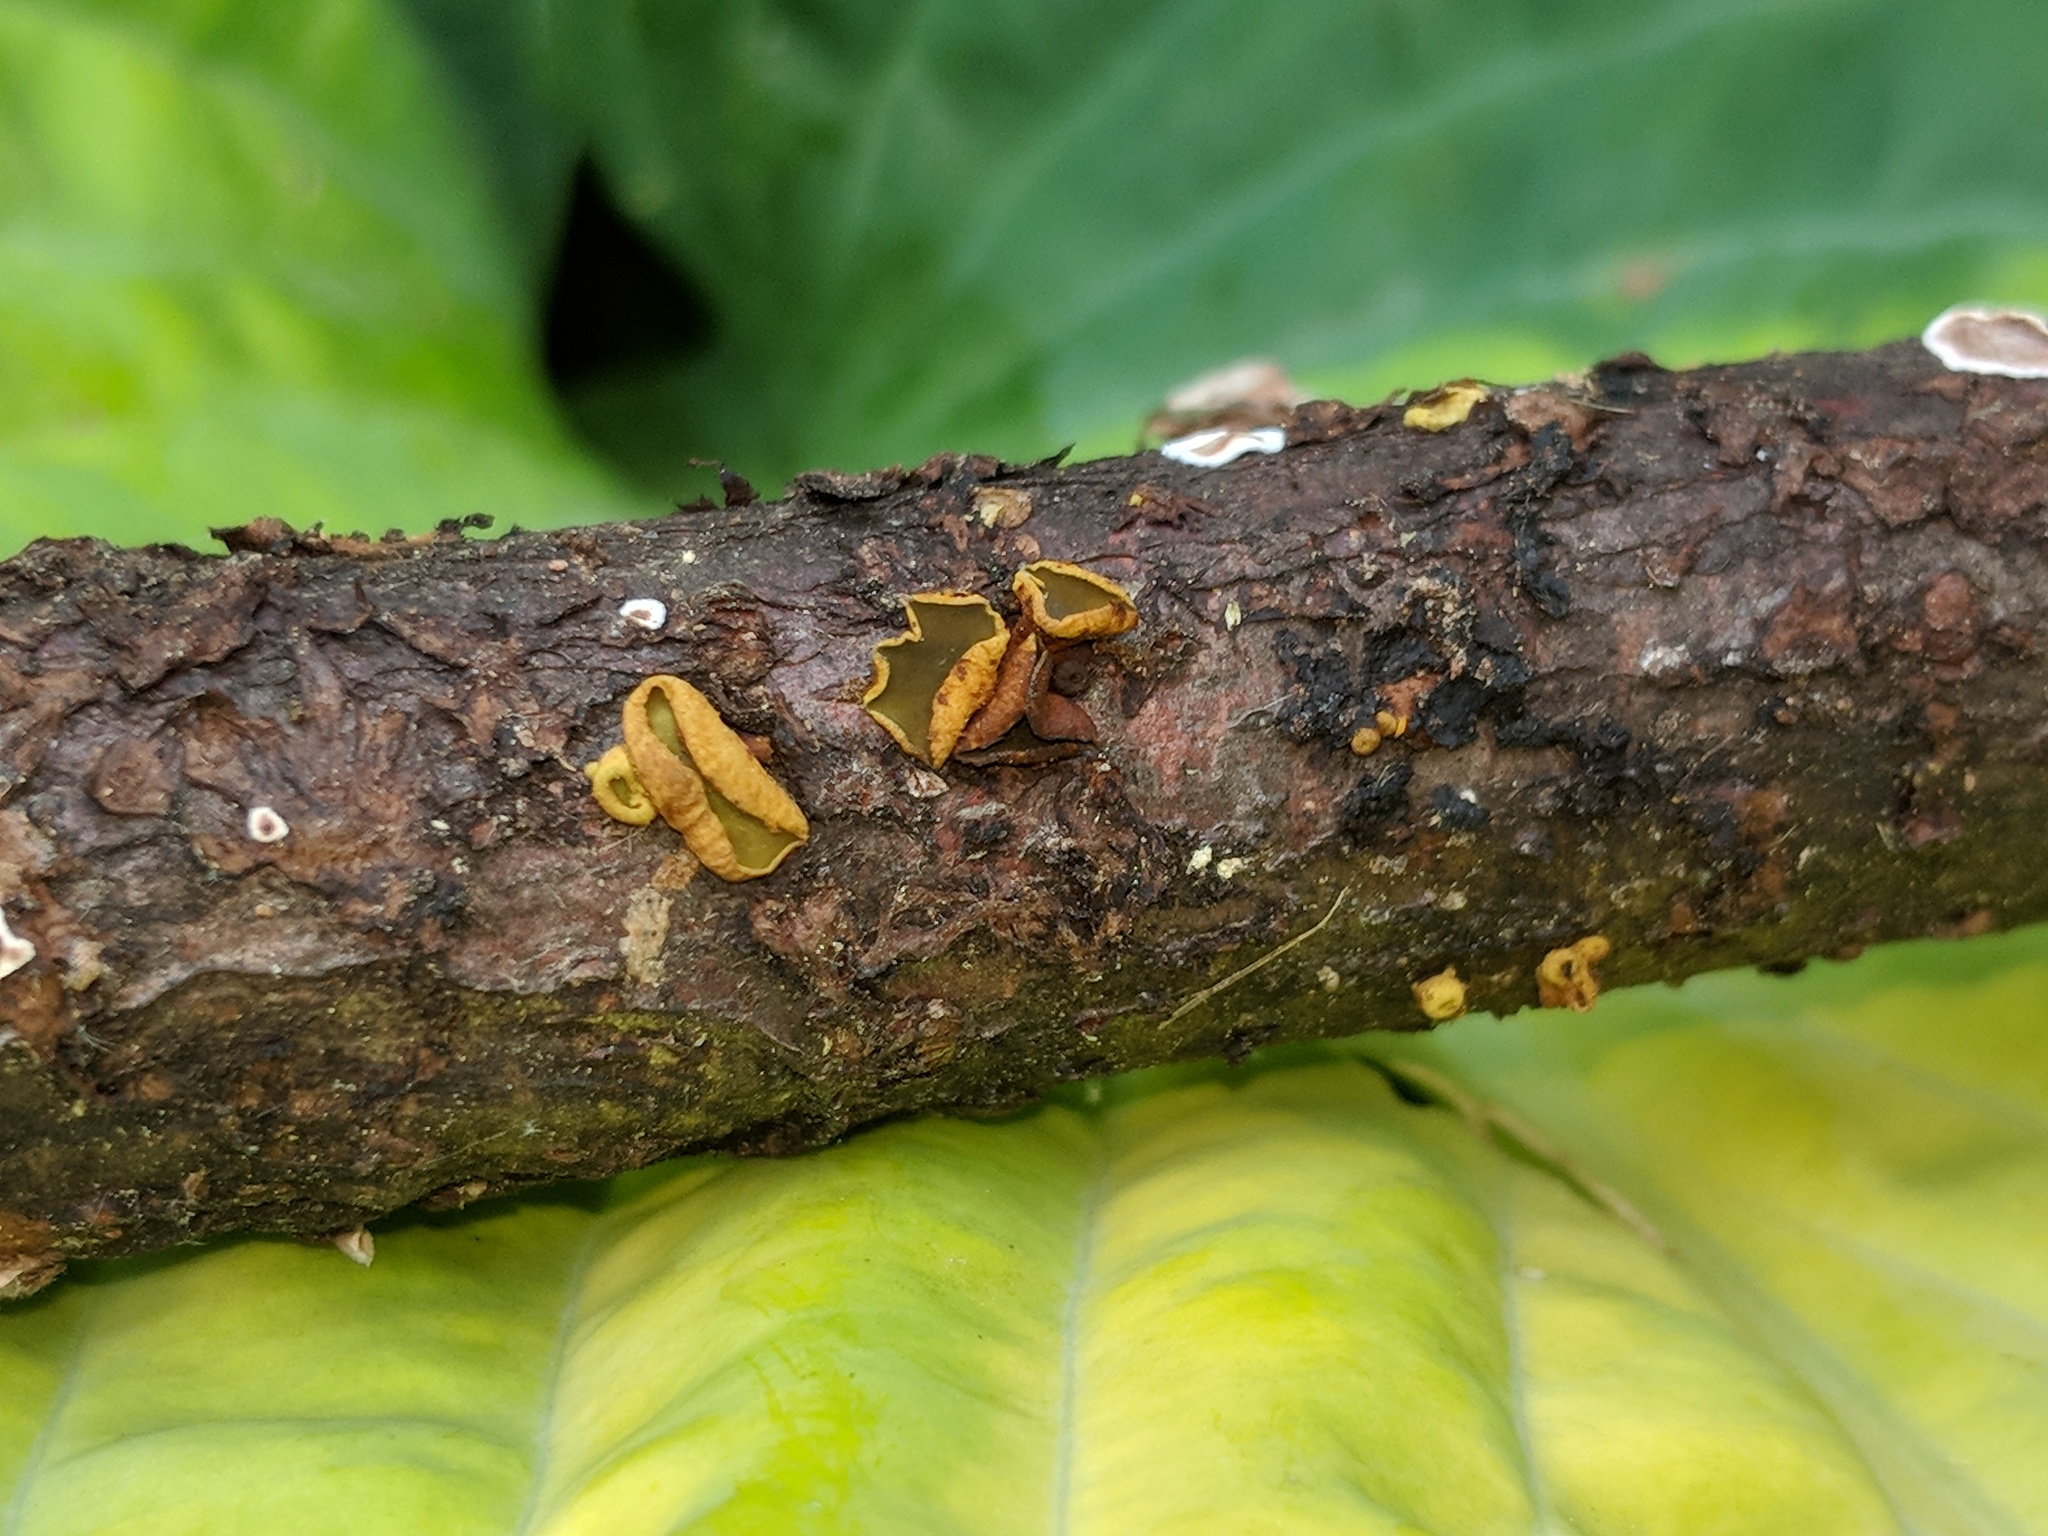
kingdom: Fungi
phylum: Ascomycota
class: Leotiomycetes
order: Helotiales
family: Cordieritidaceae
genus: Ionomidotis
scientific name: Ionomidotis fulvotingens
